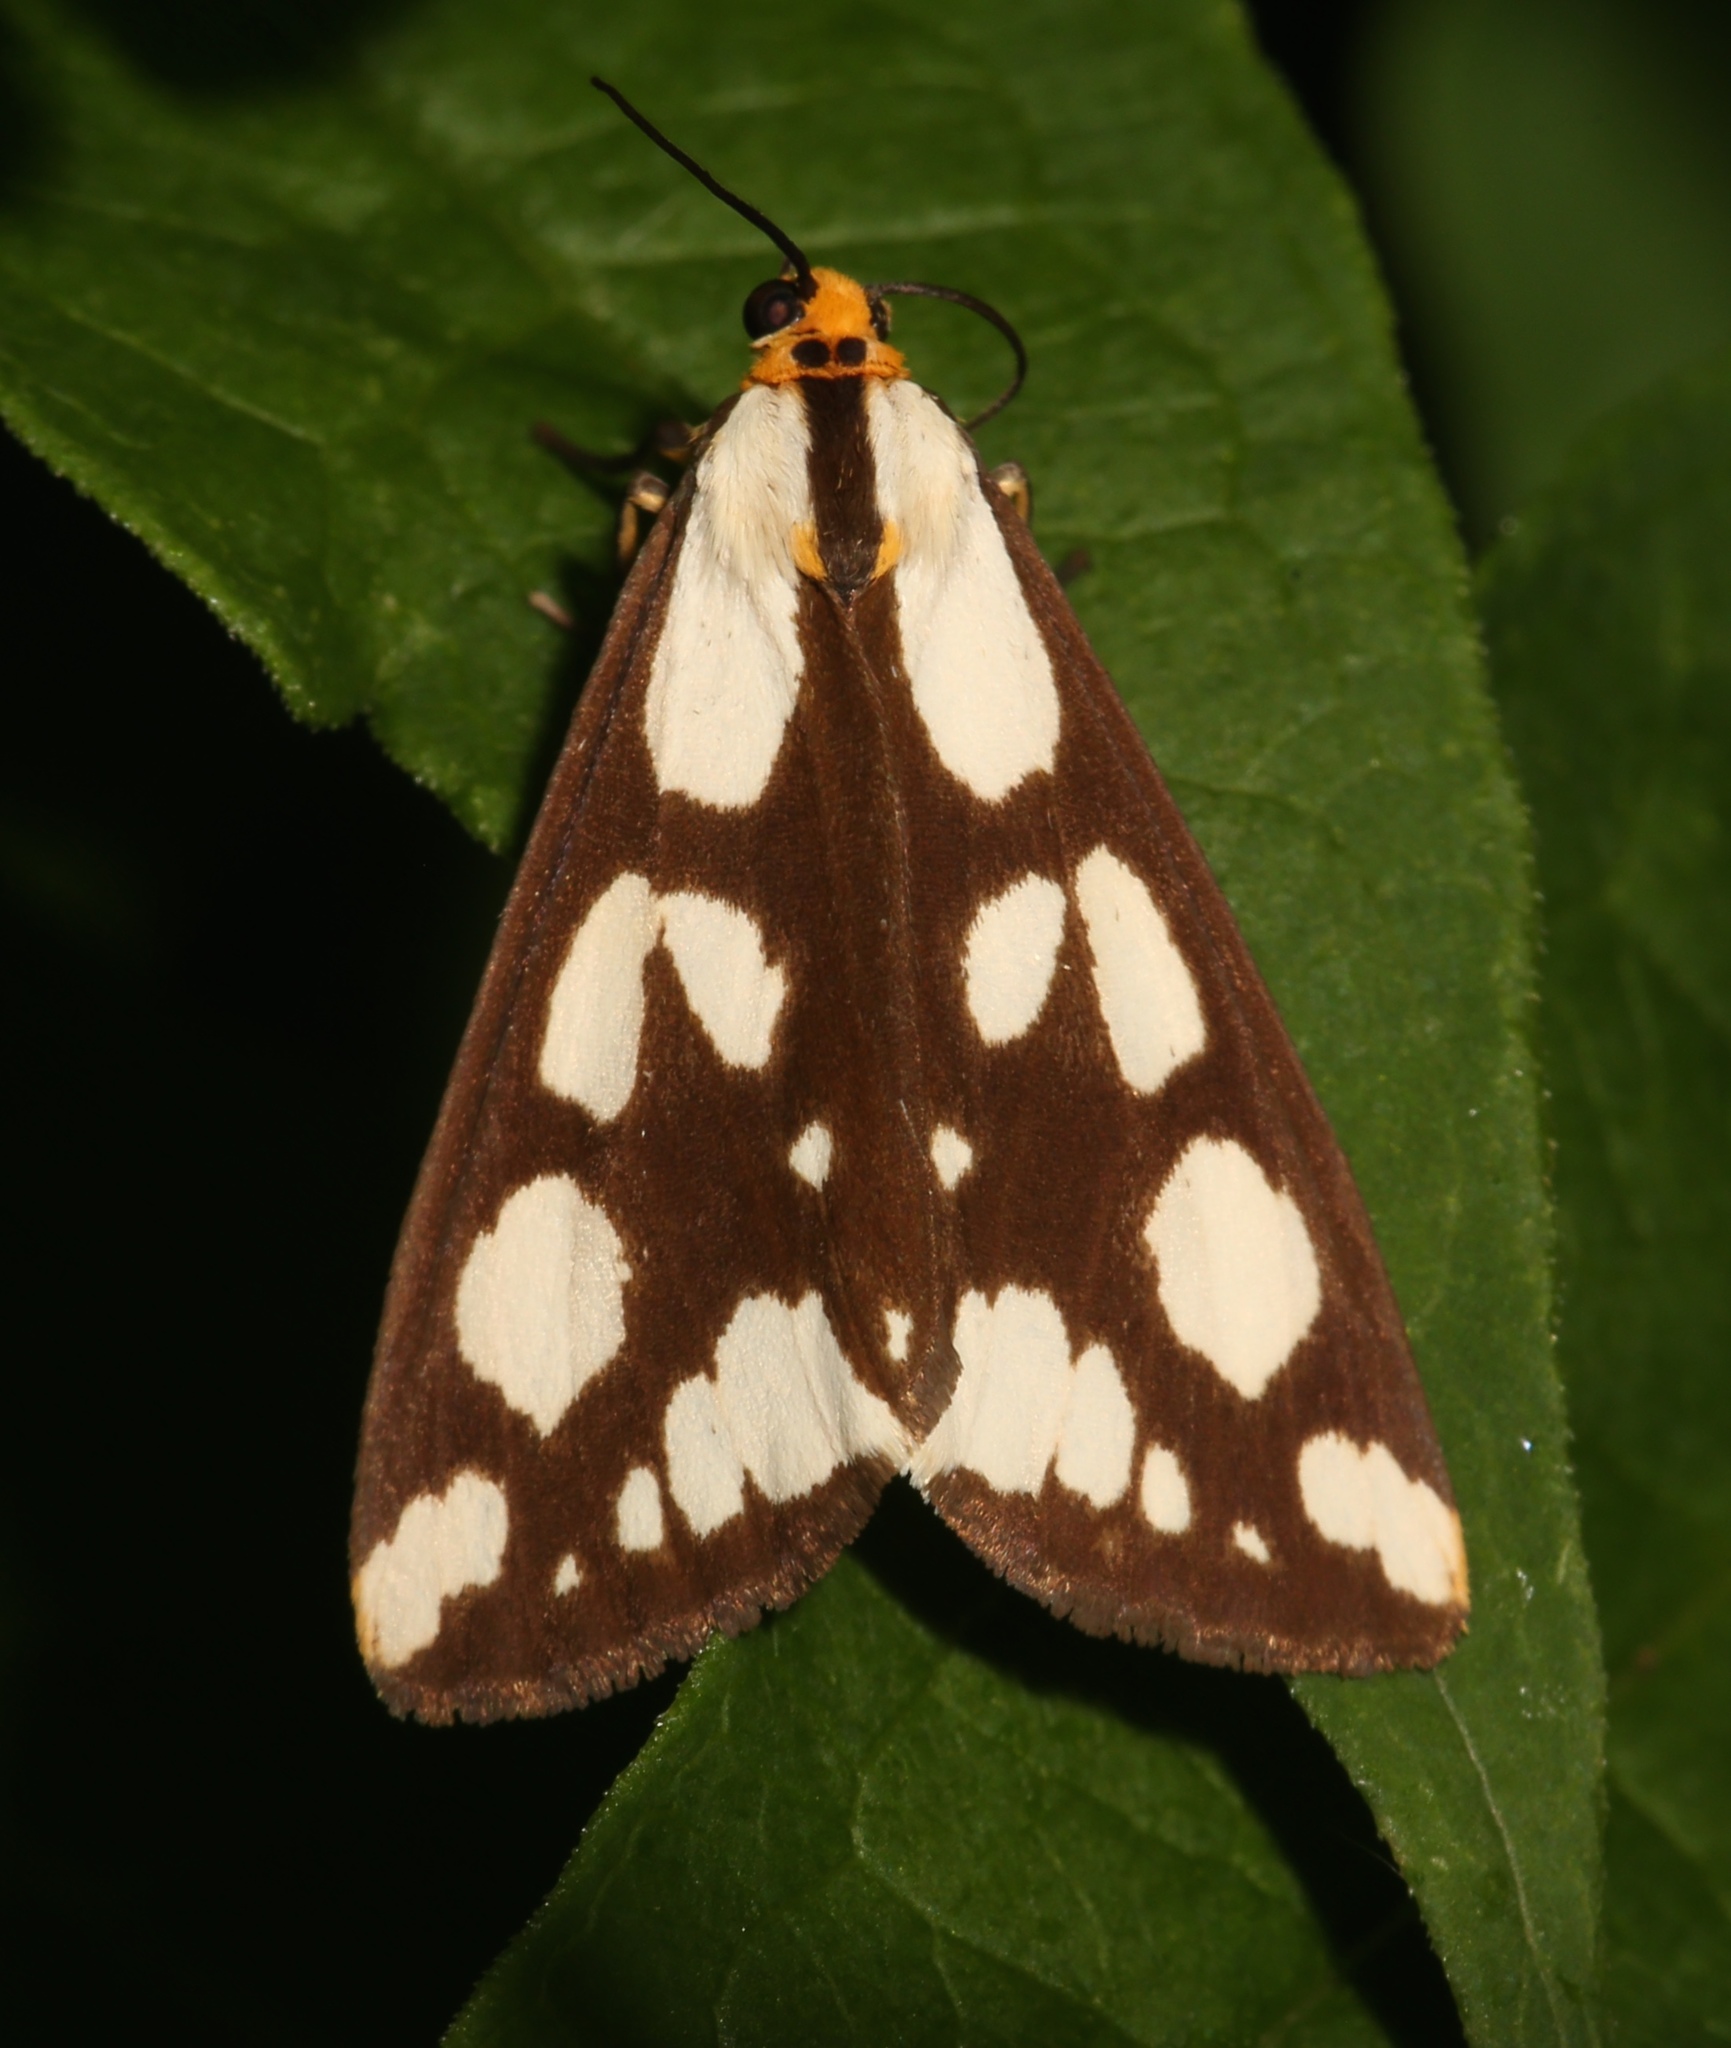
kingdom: Animalia
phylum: Arthropoda
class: Insecta
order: Lepidoptera
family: Erebidae
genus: Haploa
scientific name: Haploa confusa
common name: Confused haploa moth
